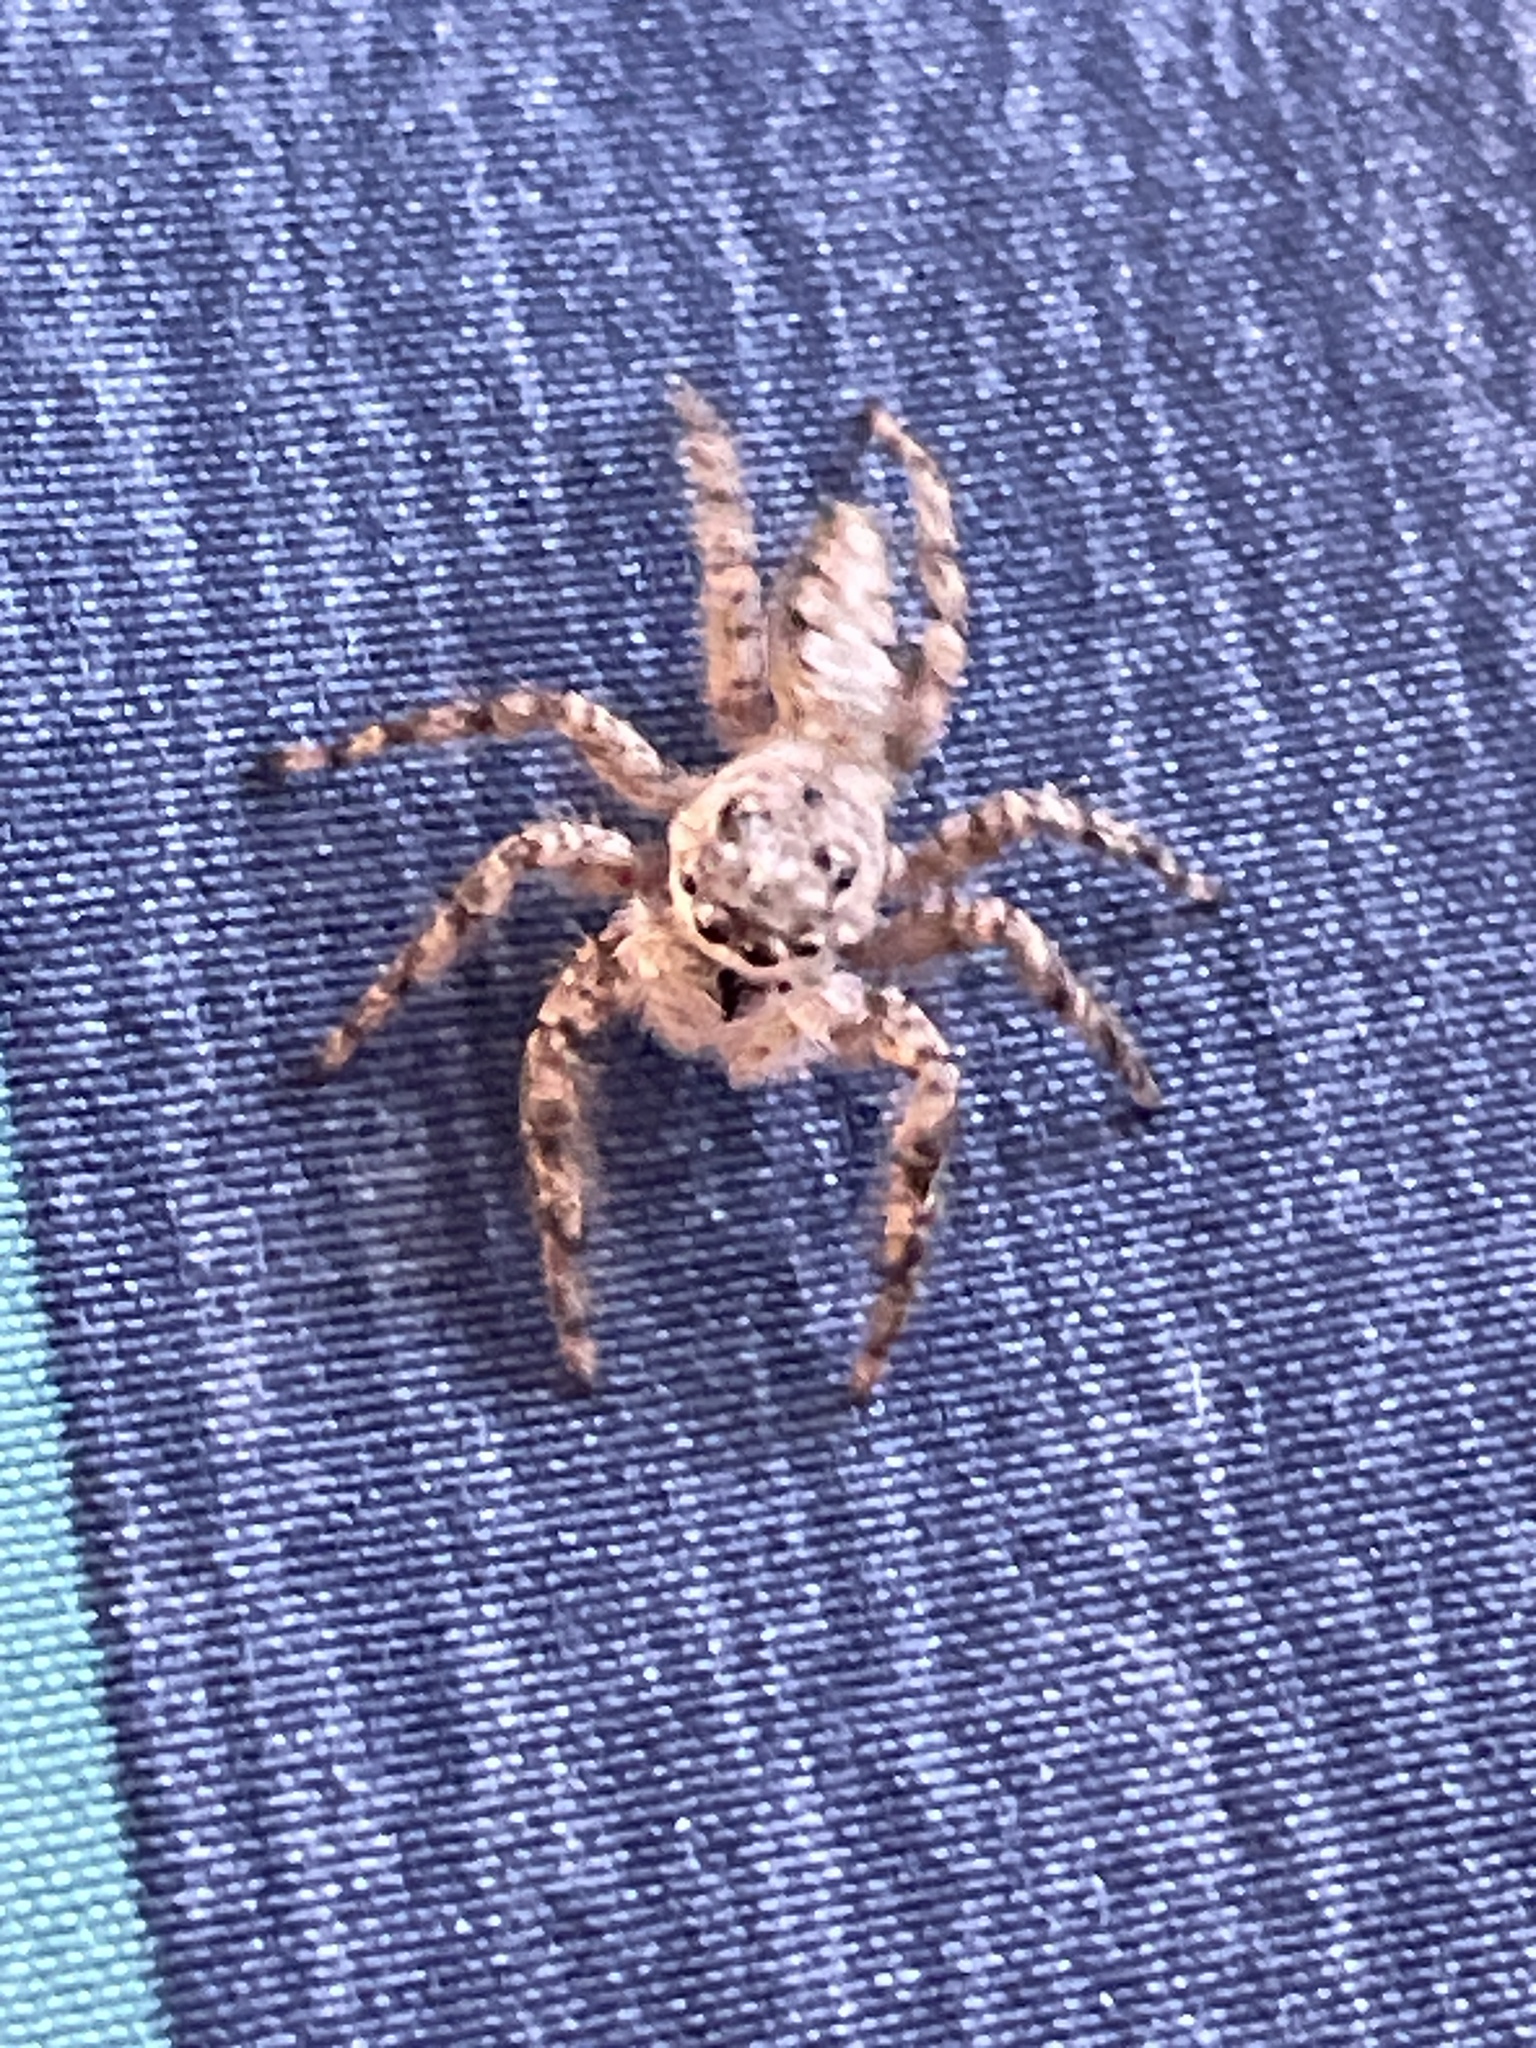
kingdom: Animalia
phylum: Arthropoda
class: Arachnida
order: Araneae
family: Salticidae
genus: Platycryptus
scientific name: Platycryptus undatus
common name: Tan jumping spider
